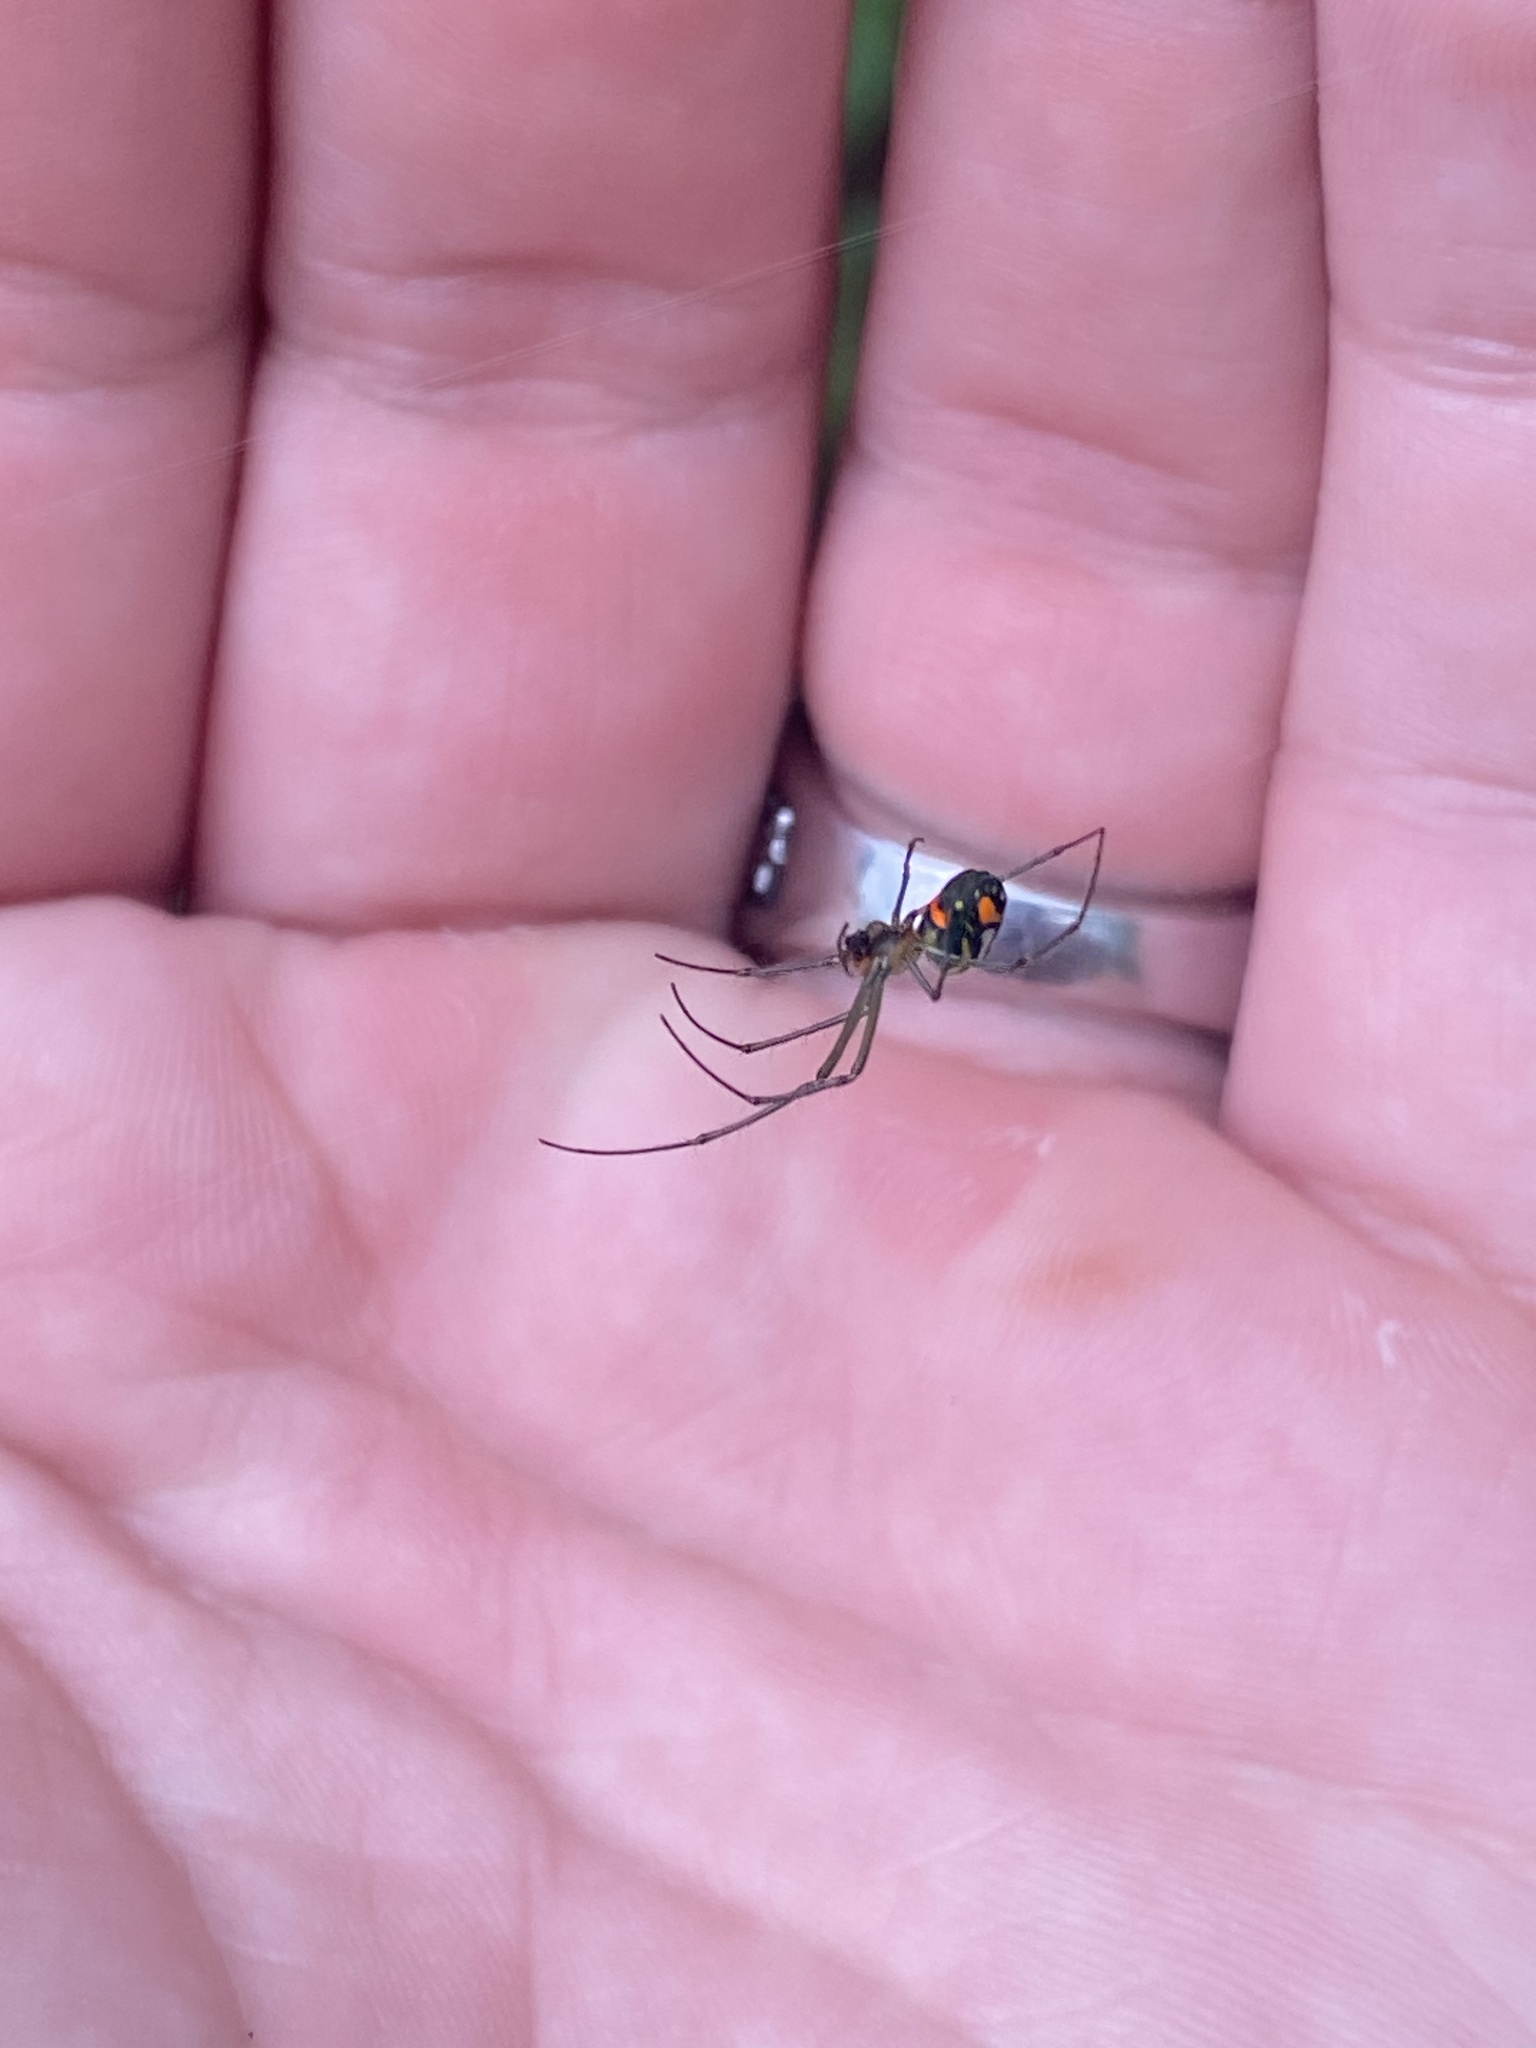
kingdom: Animalia
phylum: Arthropoda
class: Arachnida
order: Araneae
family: Tetragnathidae
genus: Leucauge
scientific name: Leucauge argyrobapta
